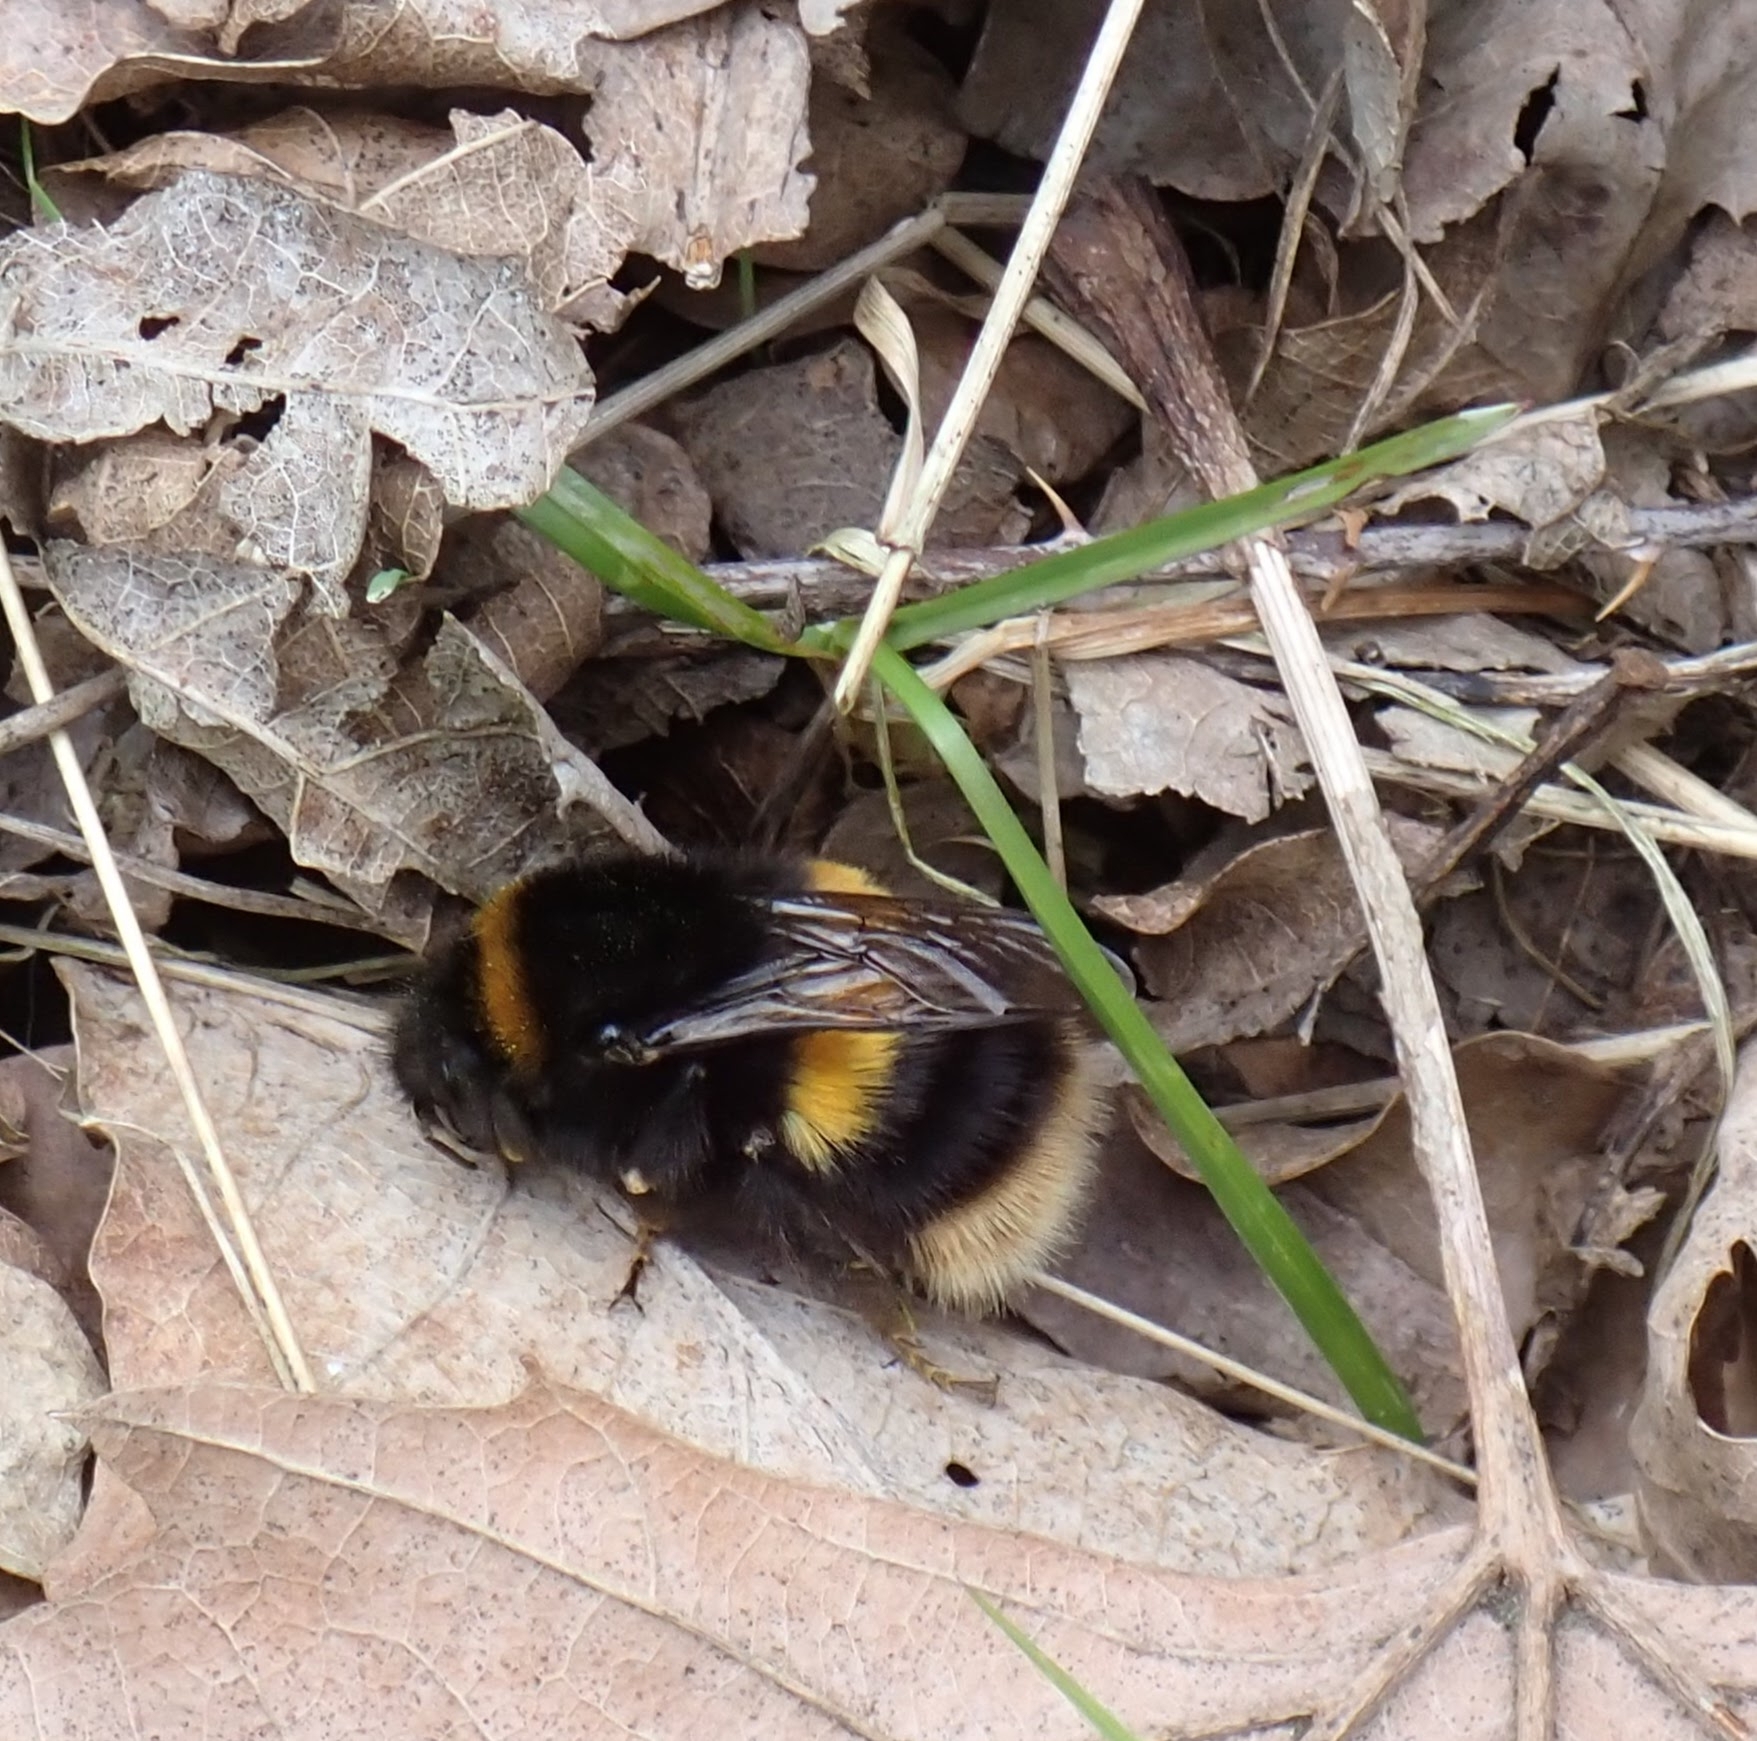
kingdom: Animalia
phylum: Arthropoda
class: Insecta
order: Hymenoptera
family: Apidae
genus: Bombus
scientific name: Bombus terrestris
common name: Buff-tailed bumblebee
